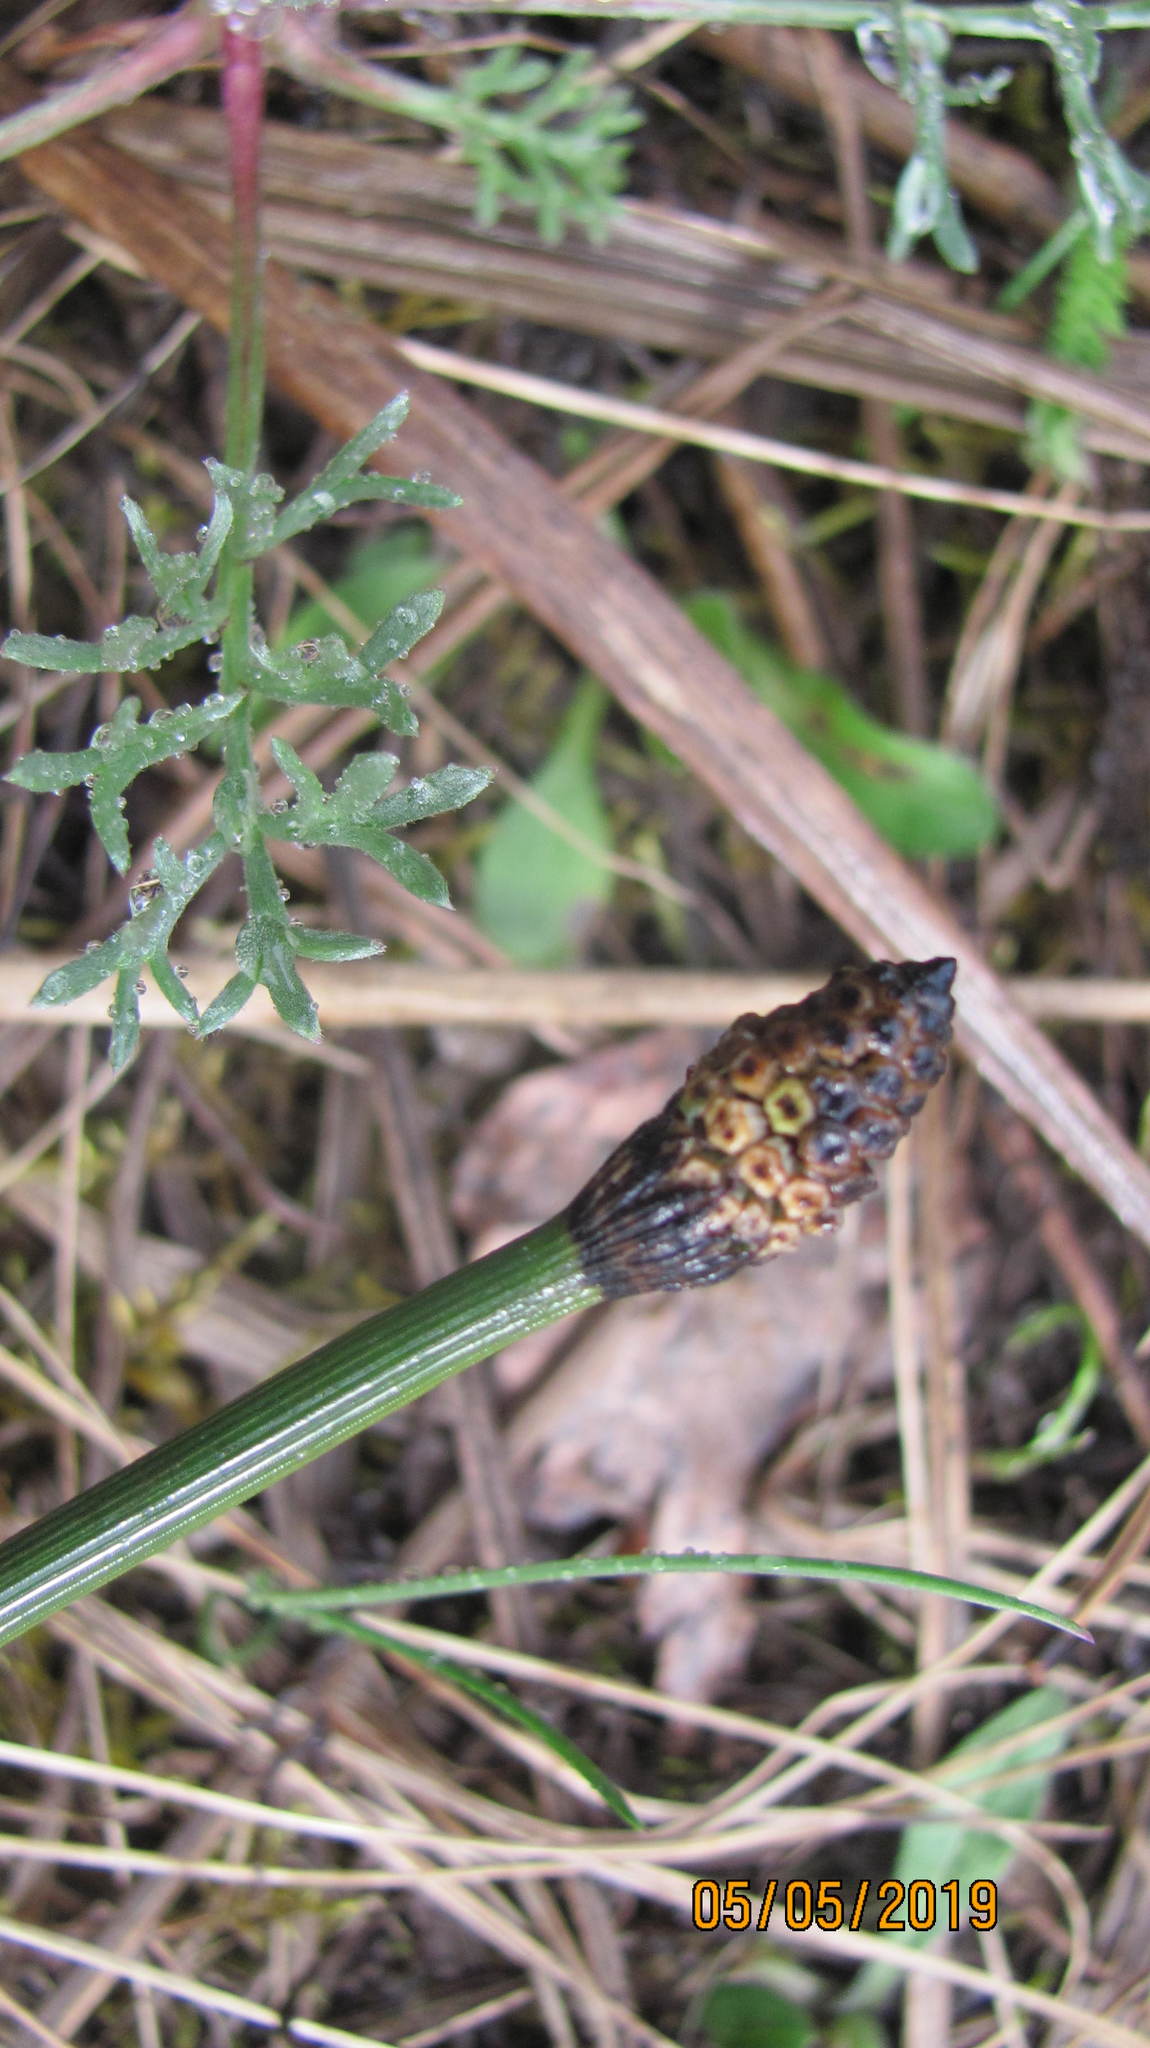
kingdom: Plantae
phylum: Tracheophyta
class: Polypodiopsida
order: Equisetales
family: Equisetaceae
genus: Equisetum
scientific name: Equisetum hyemale
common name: Rough horsetail
